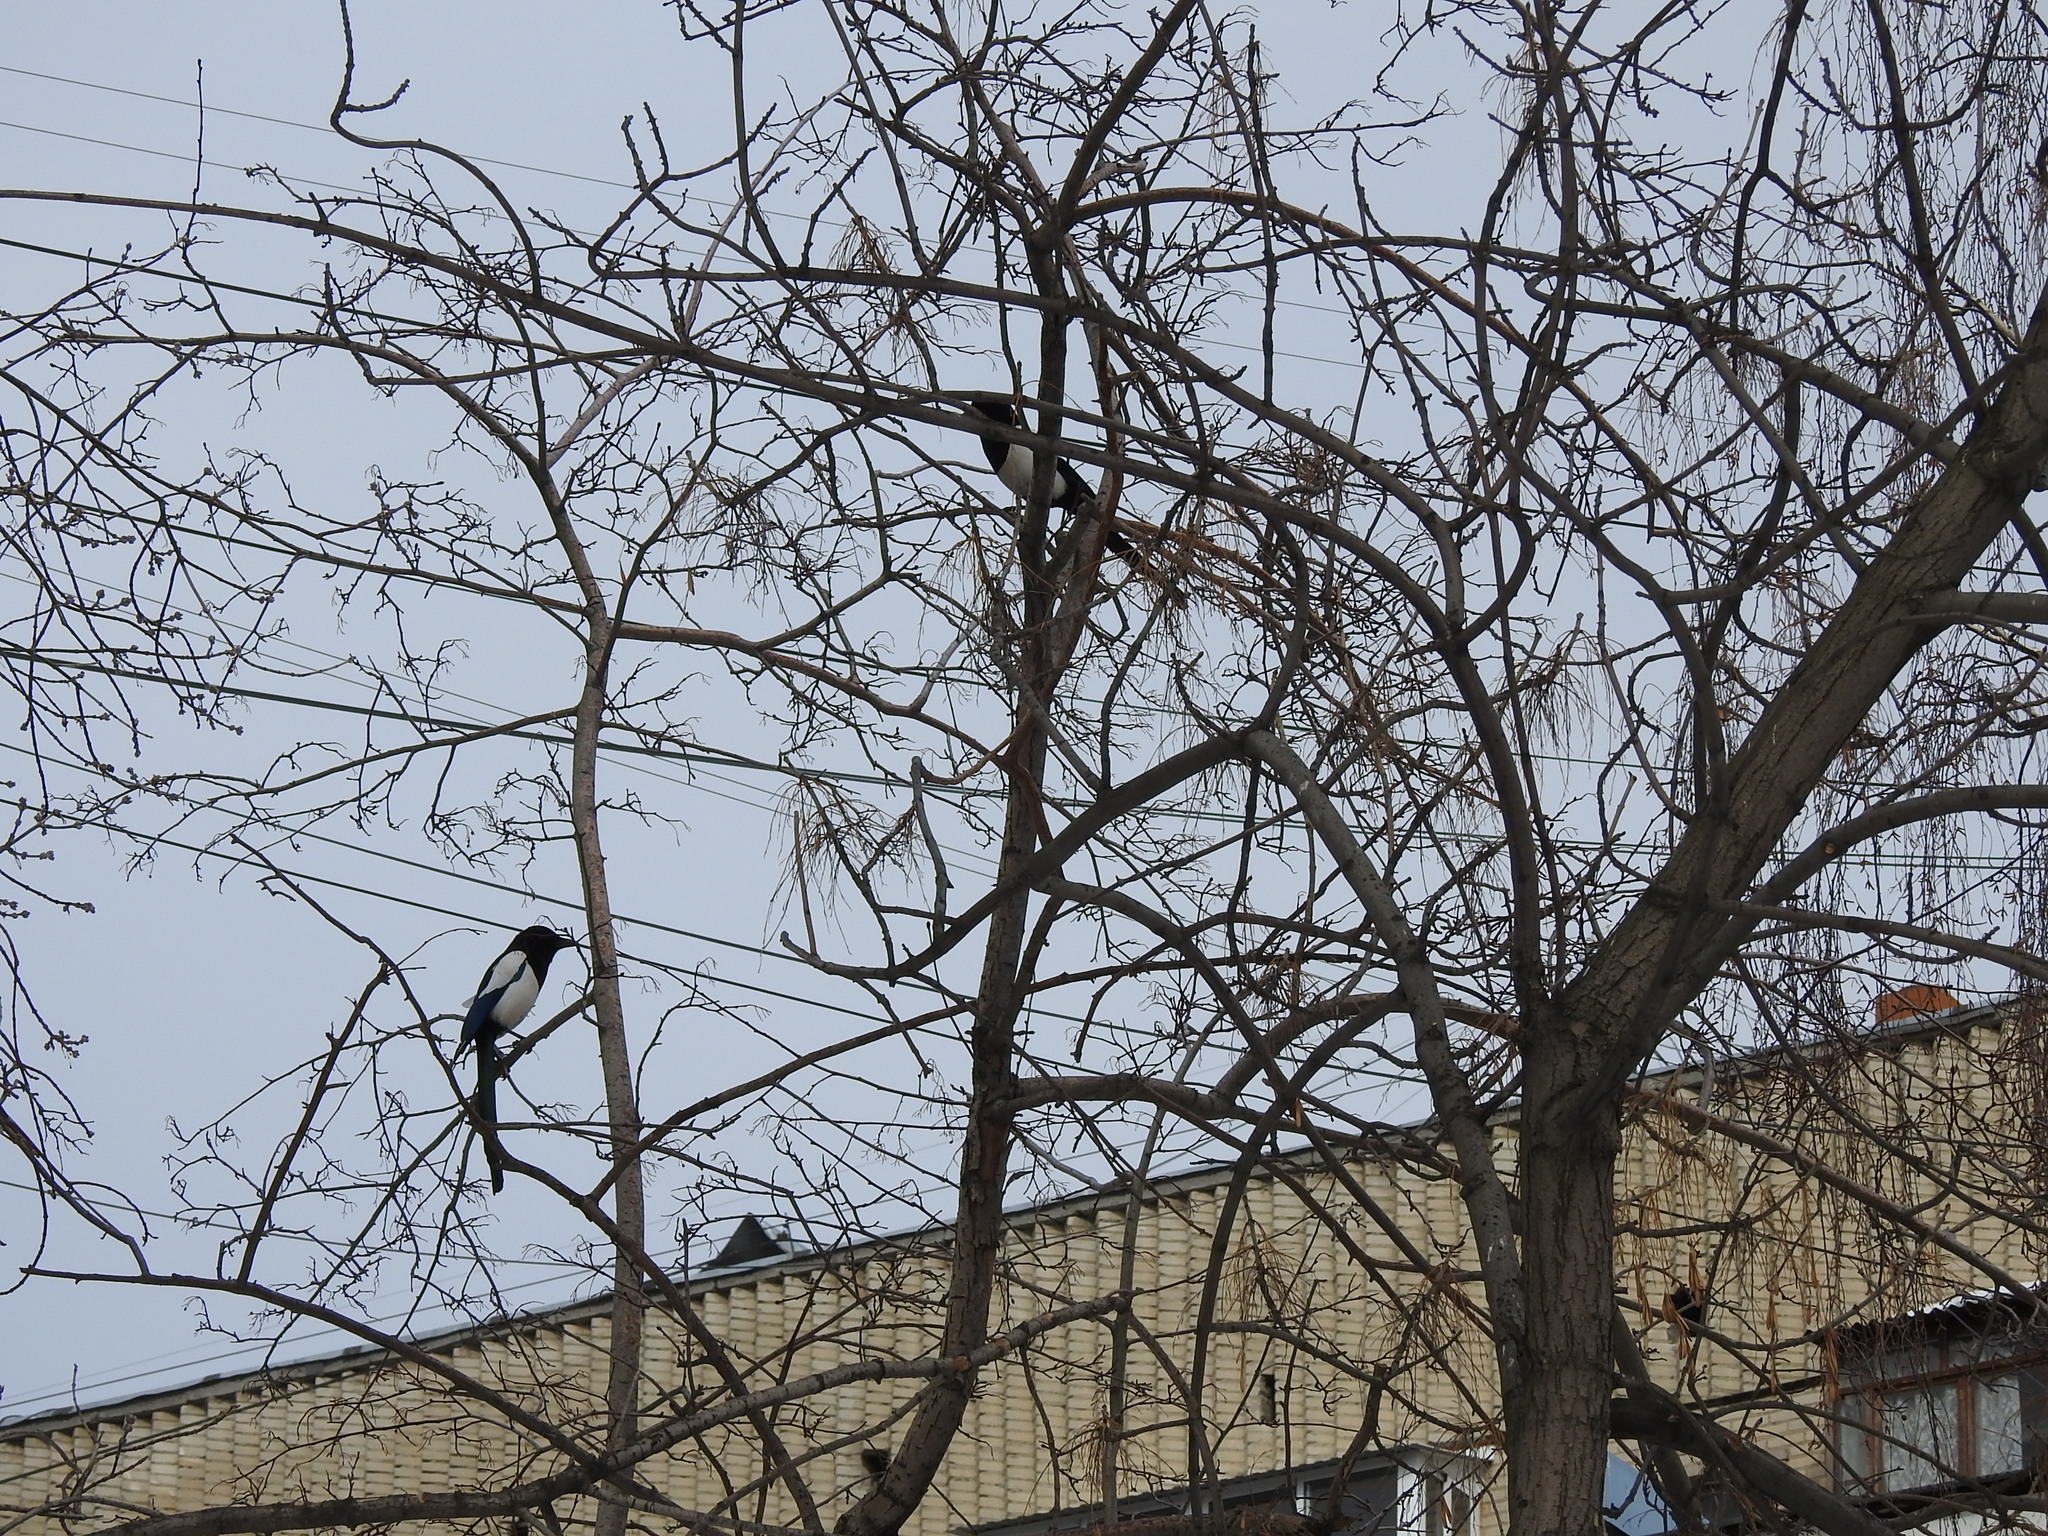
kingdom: Animalia
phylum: Chordata
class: Aves
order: Passeriformes
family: Corvidae
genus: Pica
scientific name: Pica pica
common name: Eurasian magpie
